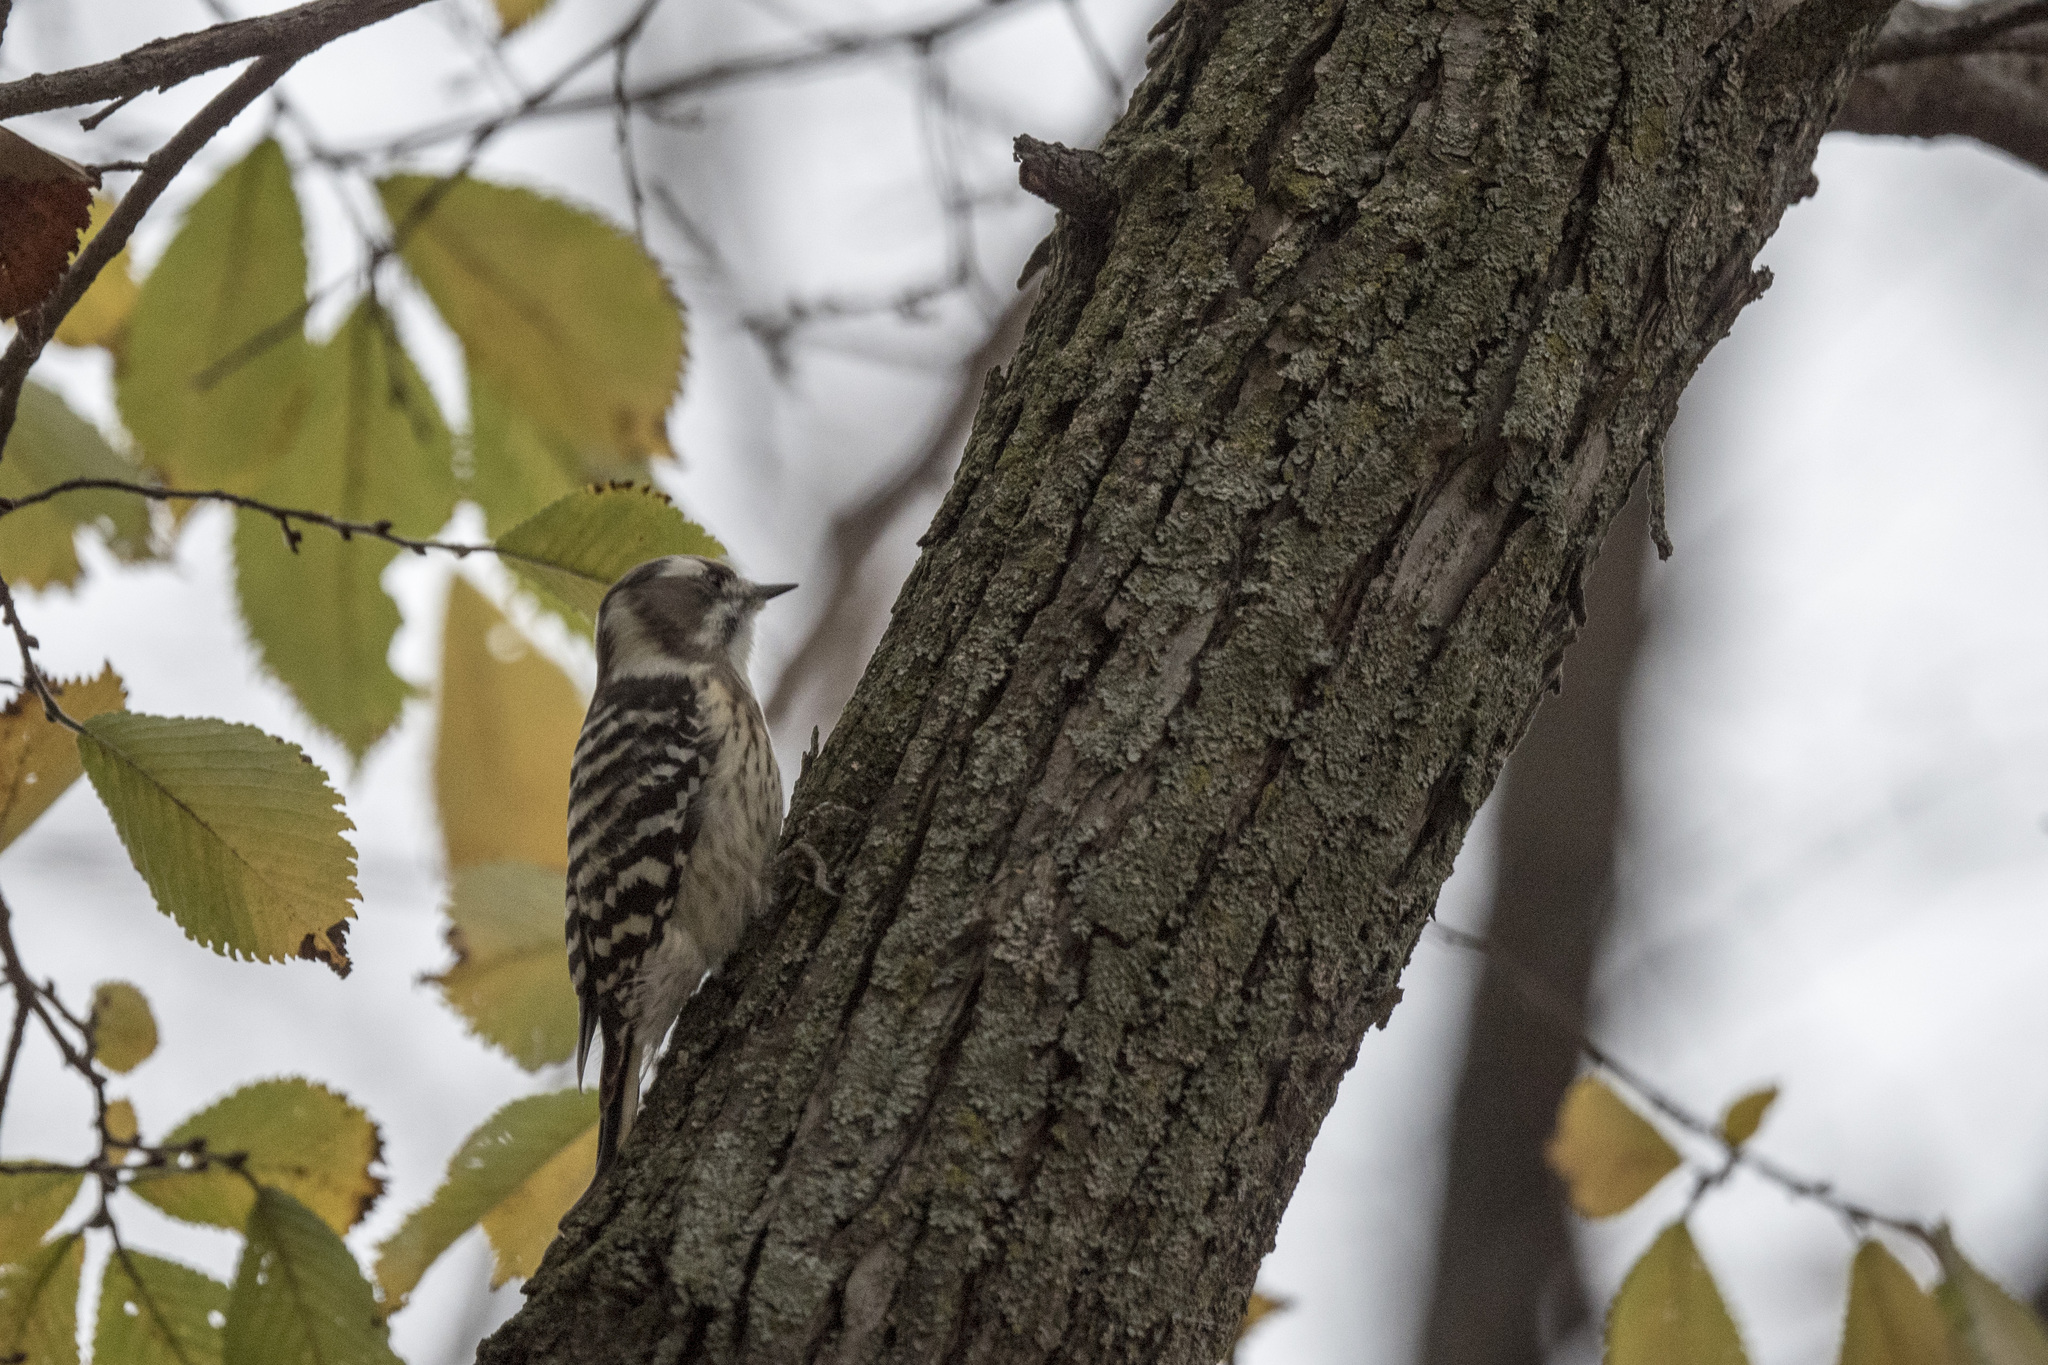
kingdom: Animalia
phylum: Chordata
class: Aves
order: Piciformes
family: Picidae
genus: Yungipicus
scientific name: Yungipicus kizuki
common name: Japanese pygmy woodpecker
